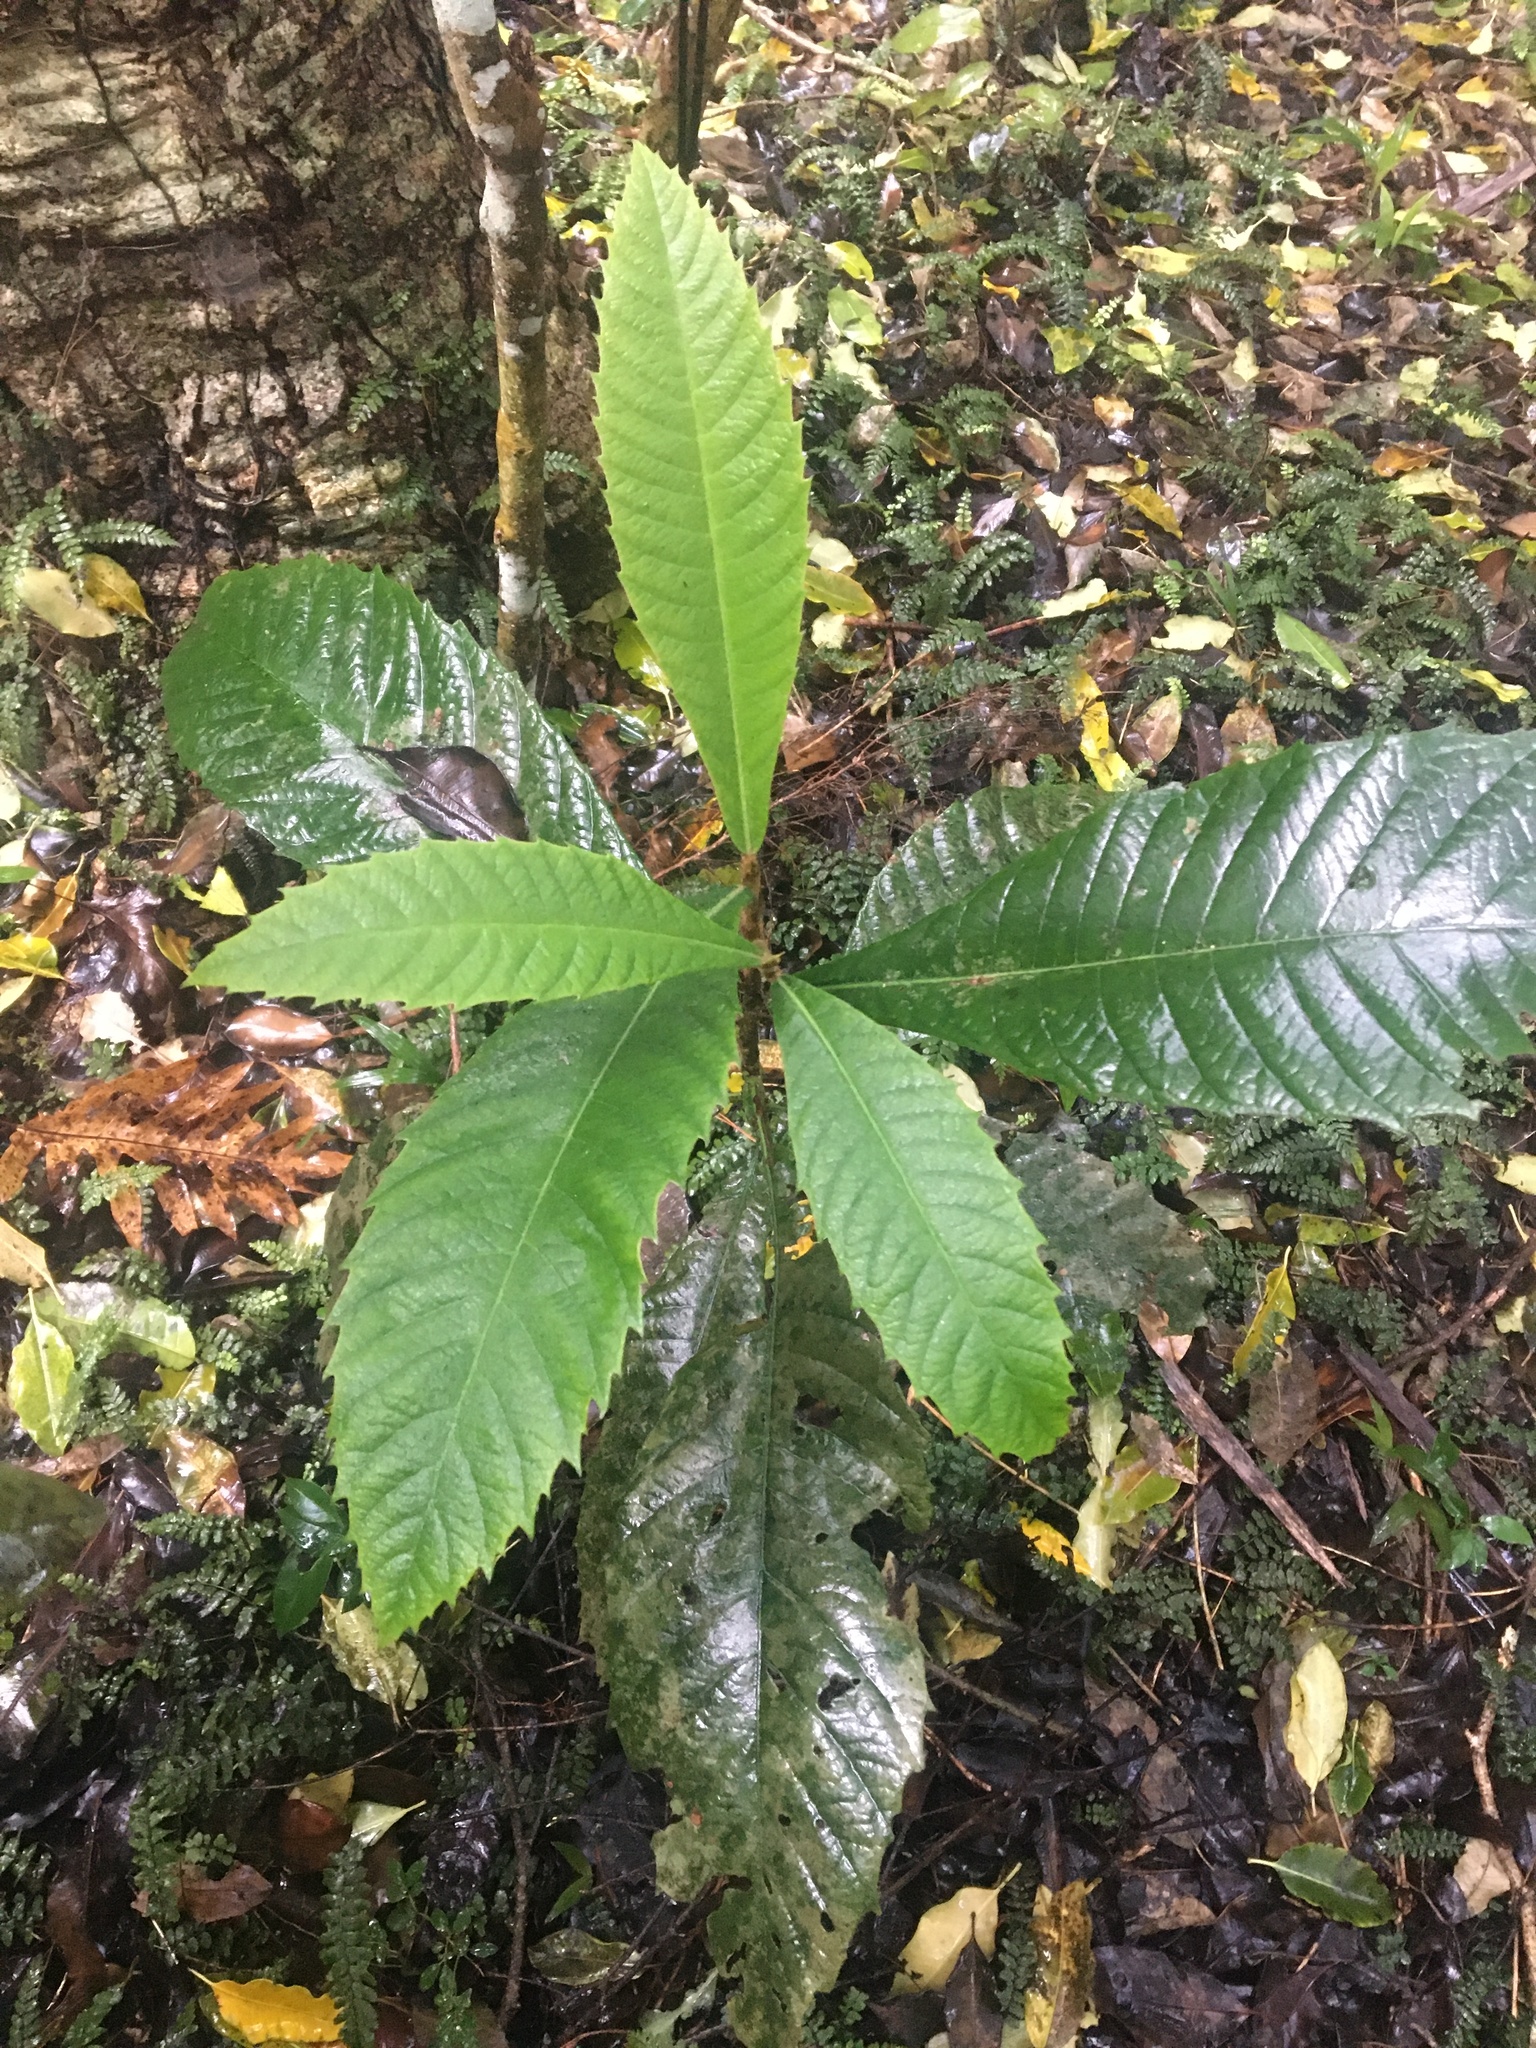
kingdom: Plantae
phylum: Tracheophyta
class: Magnoliopsida
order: Rosales
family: Rosaceae
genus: Rhaphiolepis
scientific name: Rhaphiolepis bibas
